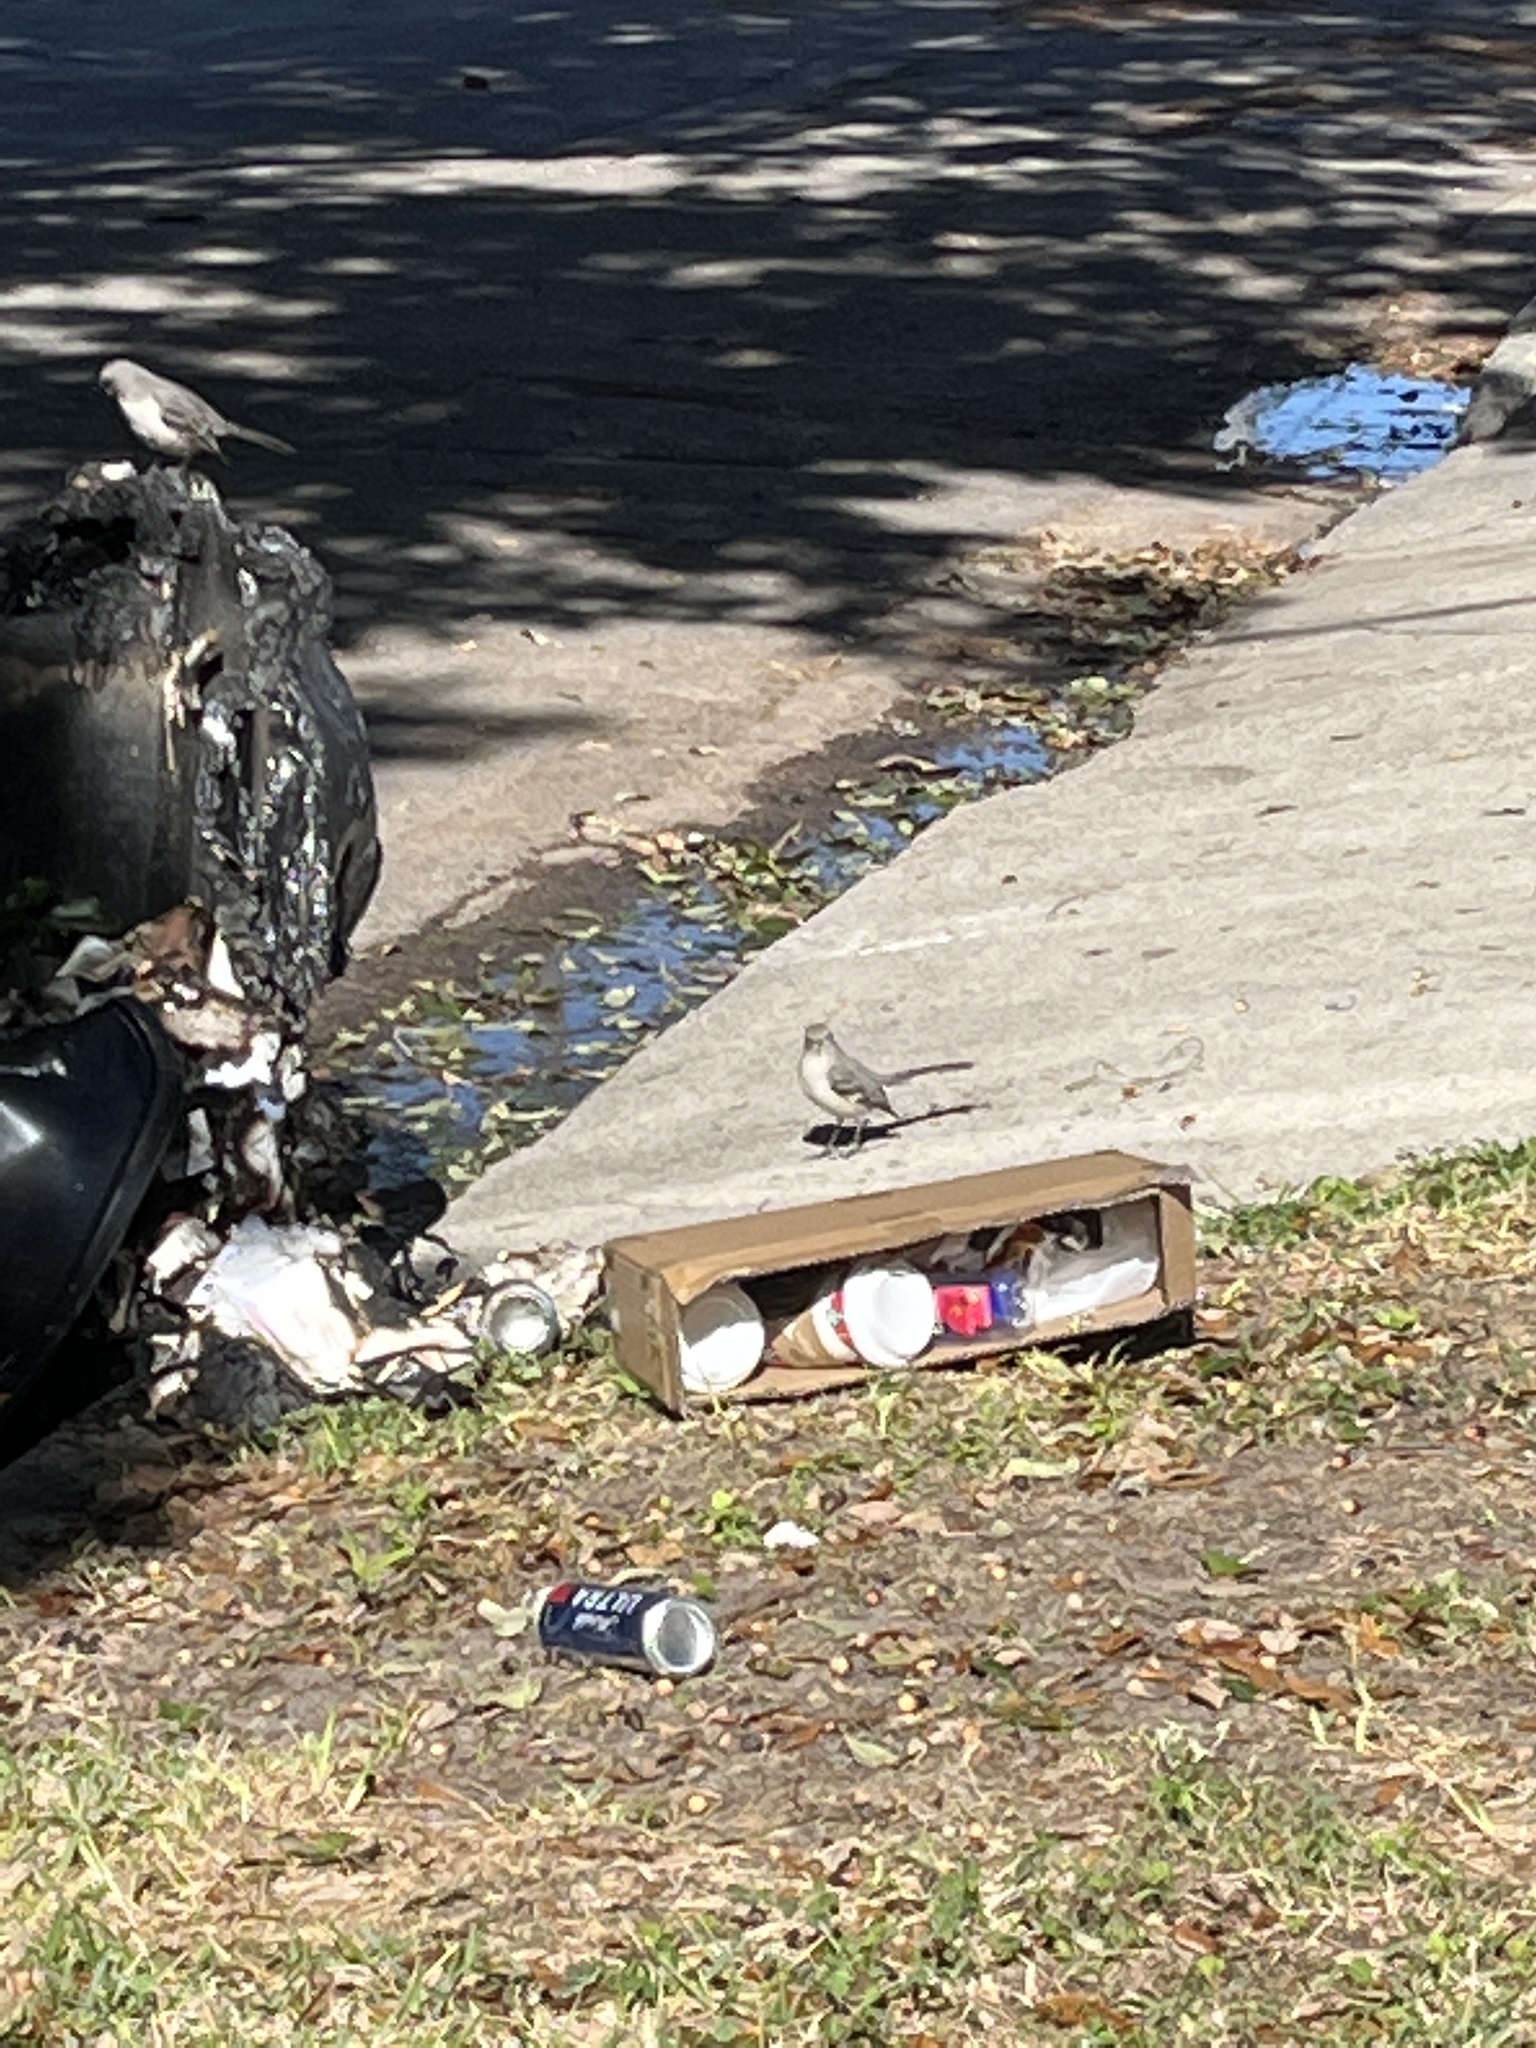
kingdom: Animalia
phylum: Chordata
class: Aves
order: Passeriformes
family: Mimidae
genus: Mimus
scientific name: Mimus polyglottos
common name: Northern mockingbird
